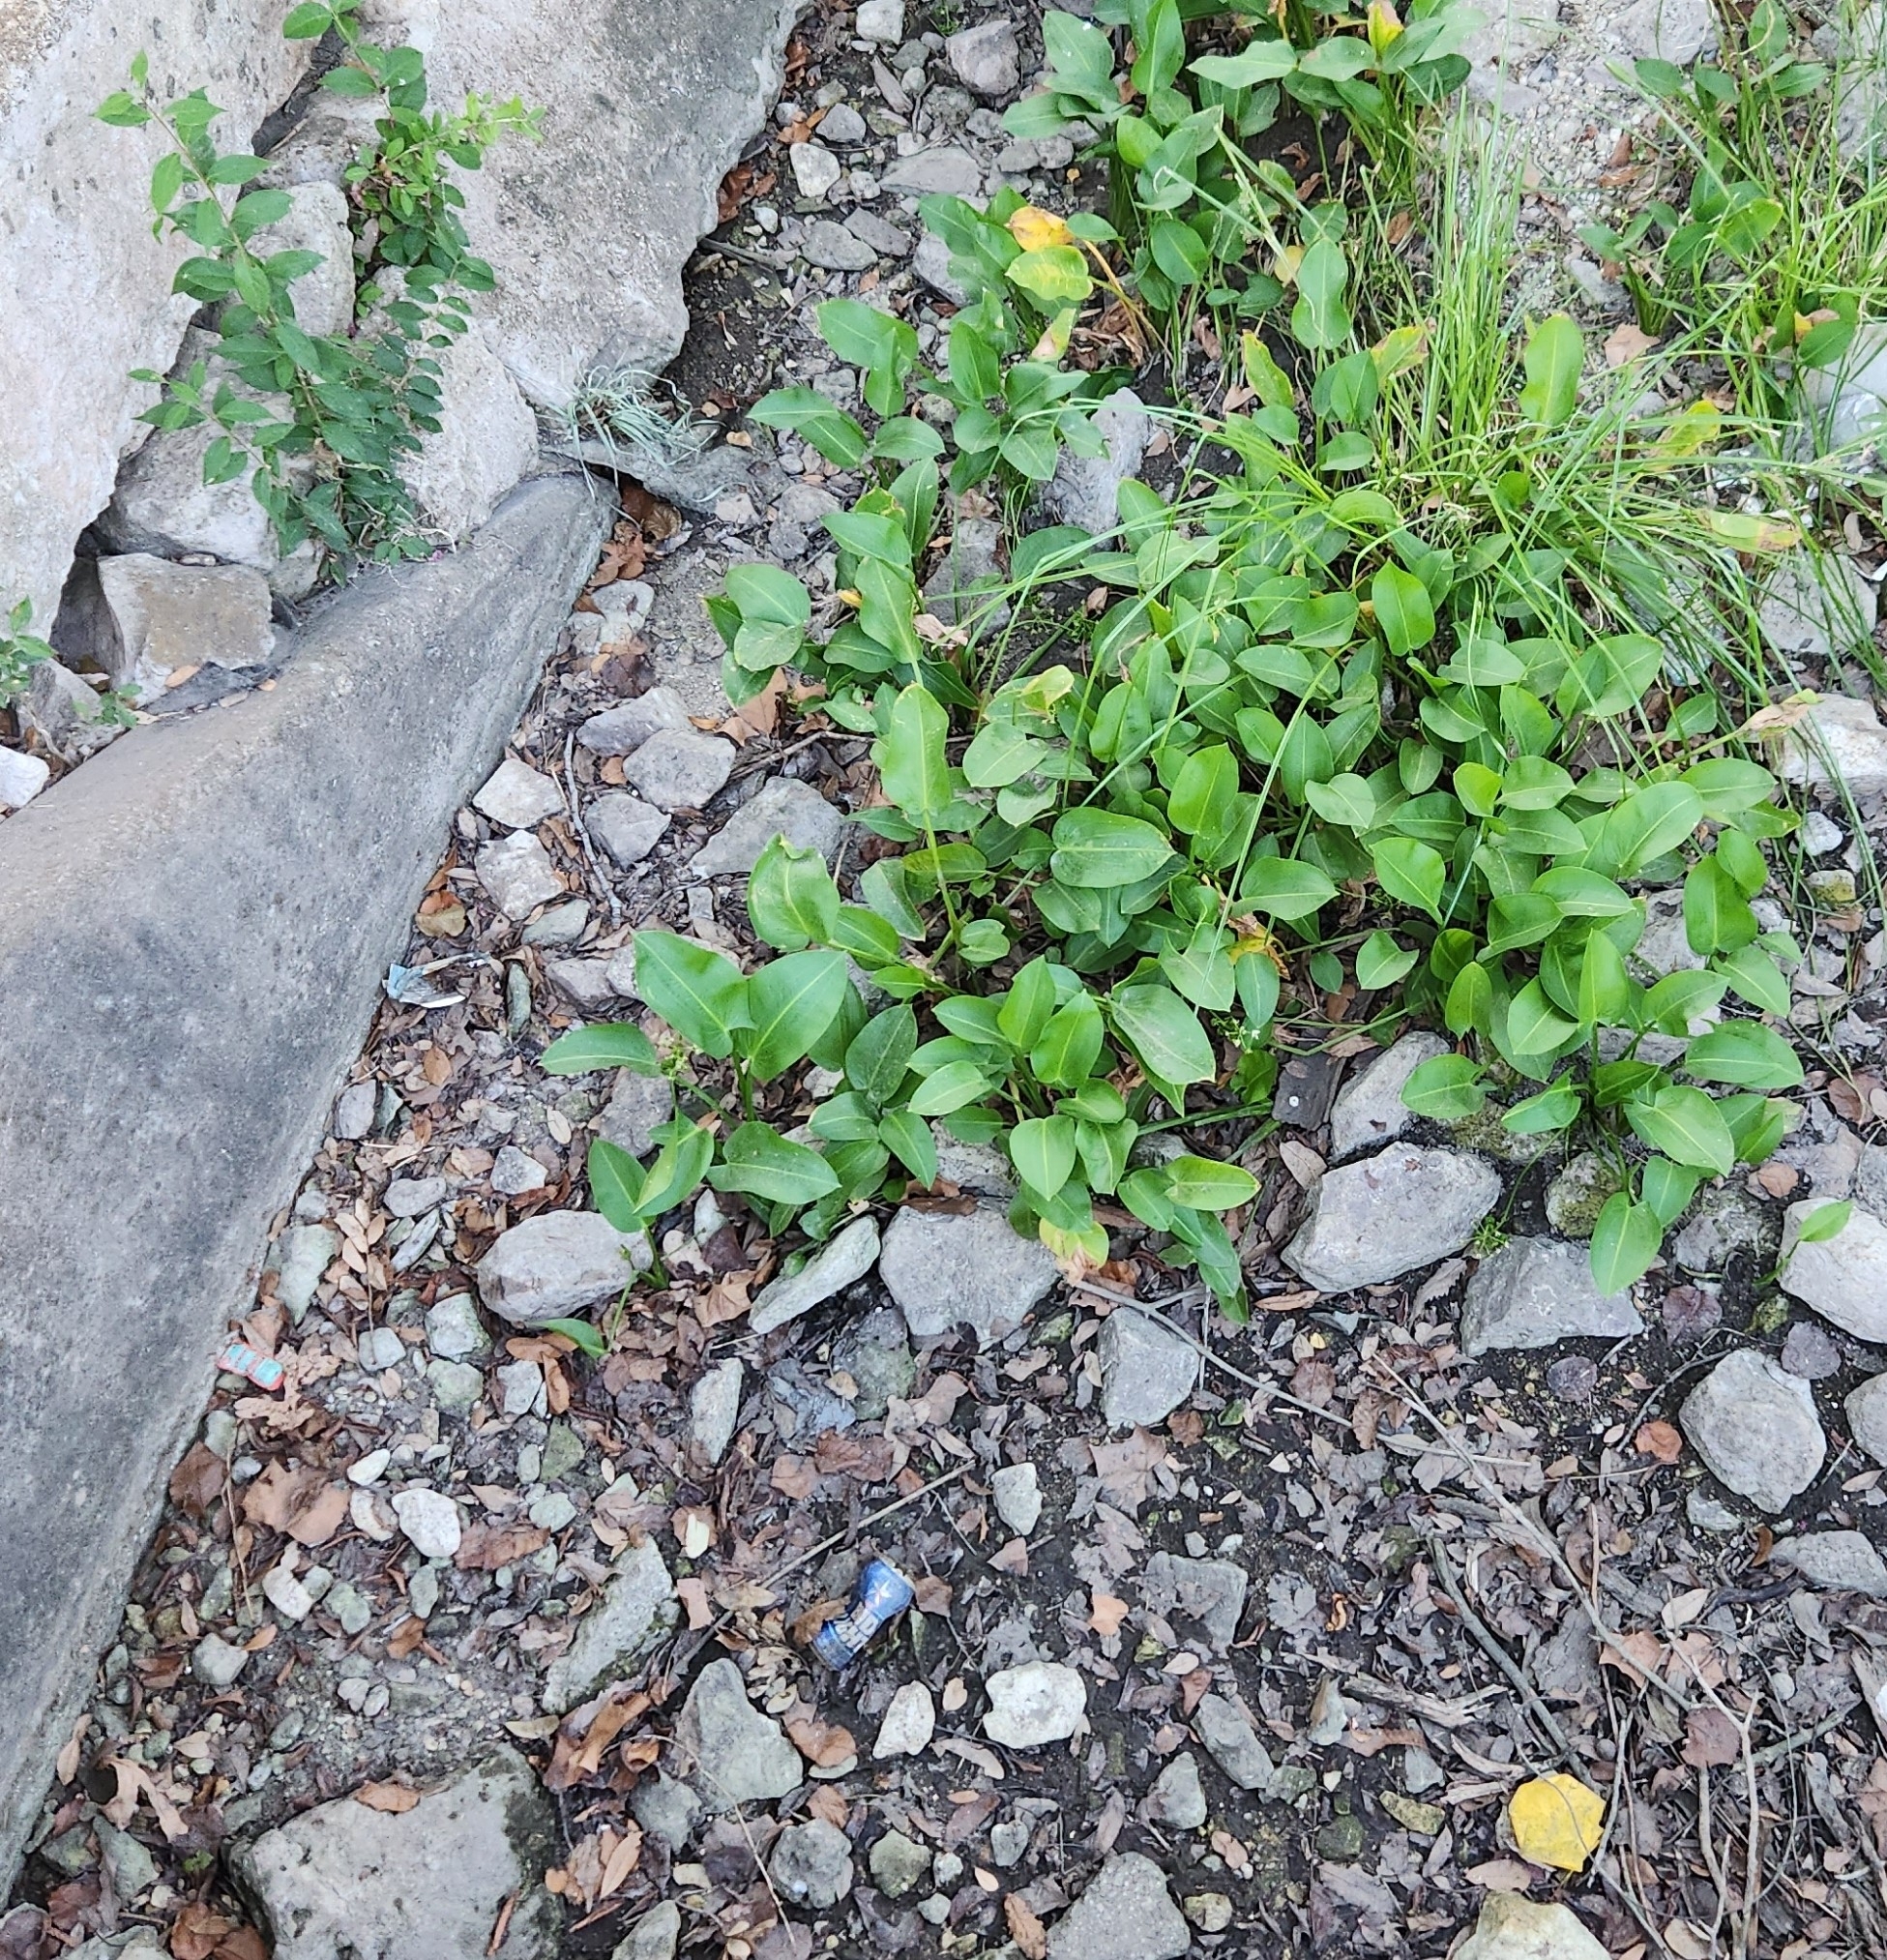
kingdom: Plantae
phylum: Tracheophyta
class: Liliopsida
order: Alismatales
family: Alismataceae
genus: Sagittaria
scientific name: Sagittaria platyphylla
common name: Broad-leaf arrowhead
